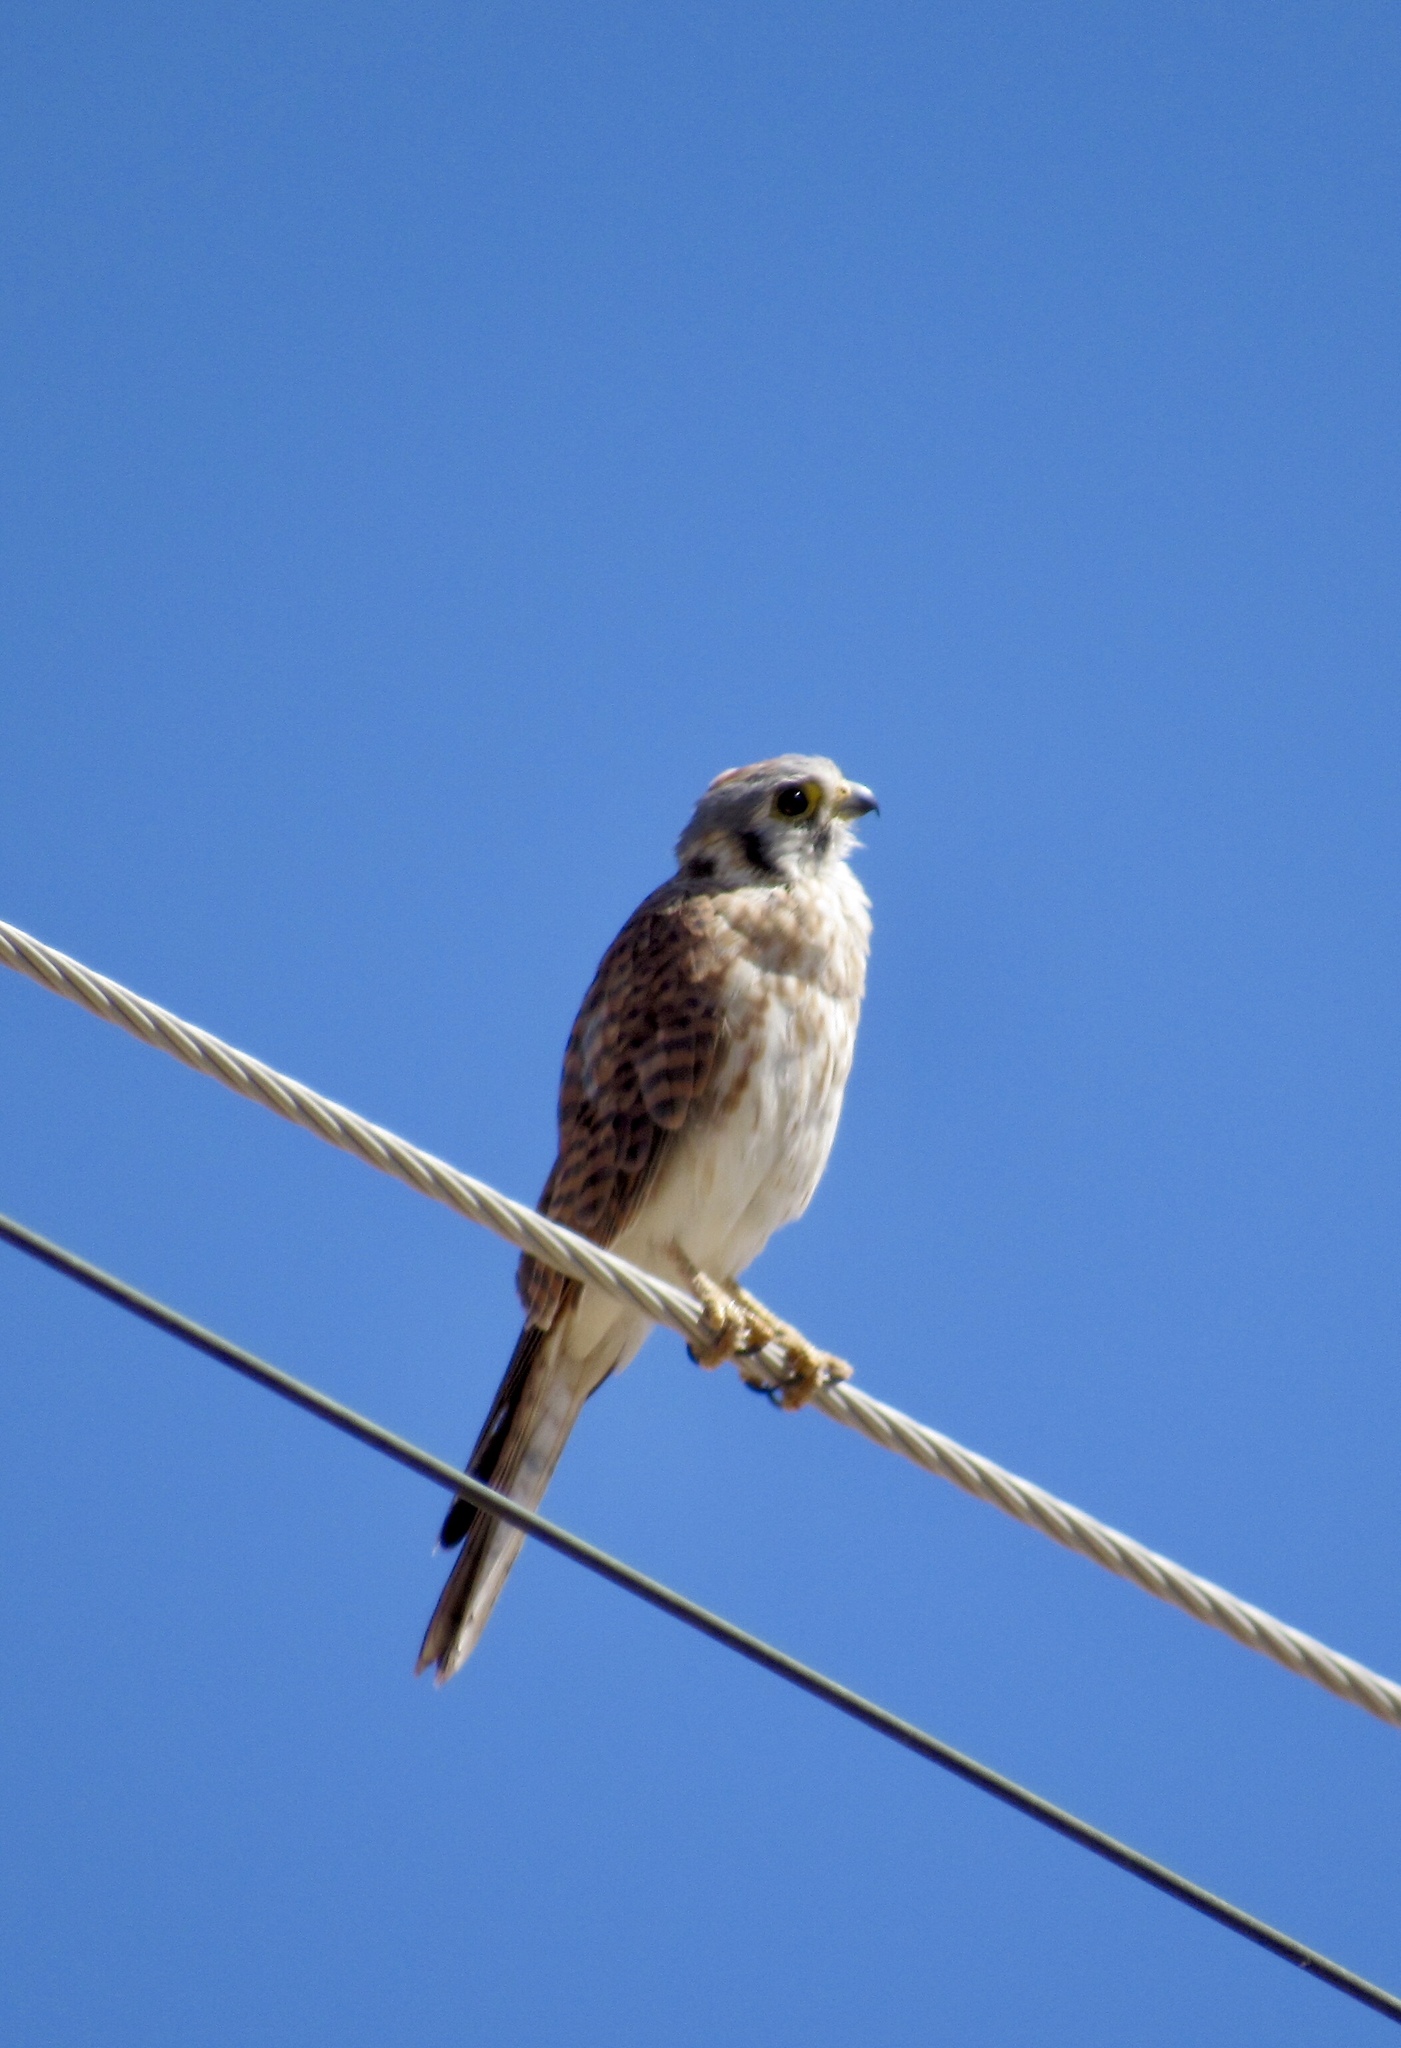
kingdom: Animalia
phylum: Chordata
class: Aves
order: Falconiformes
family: Falconidae
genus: Falco
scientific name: Falco sparverius
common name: American kestrel
